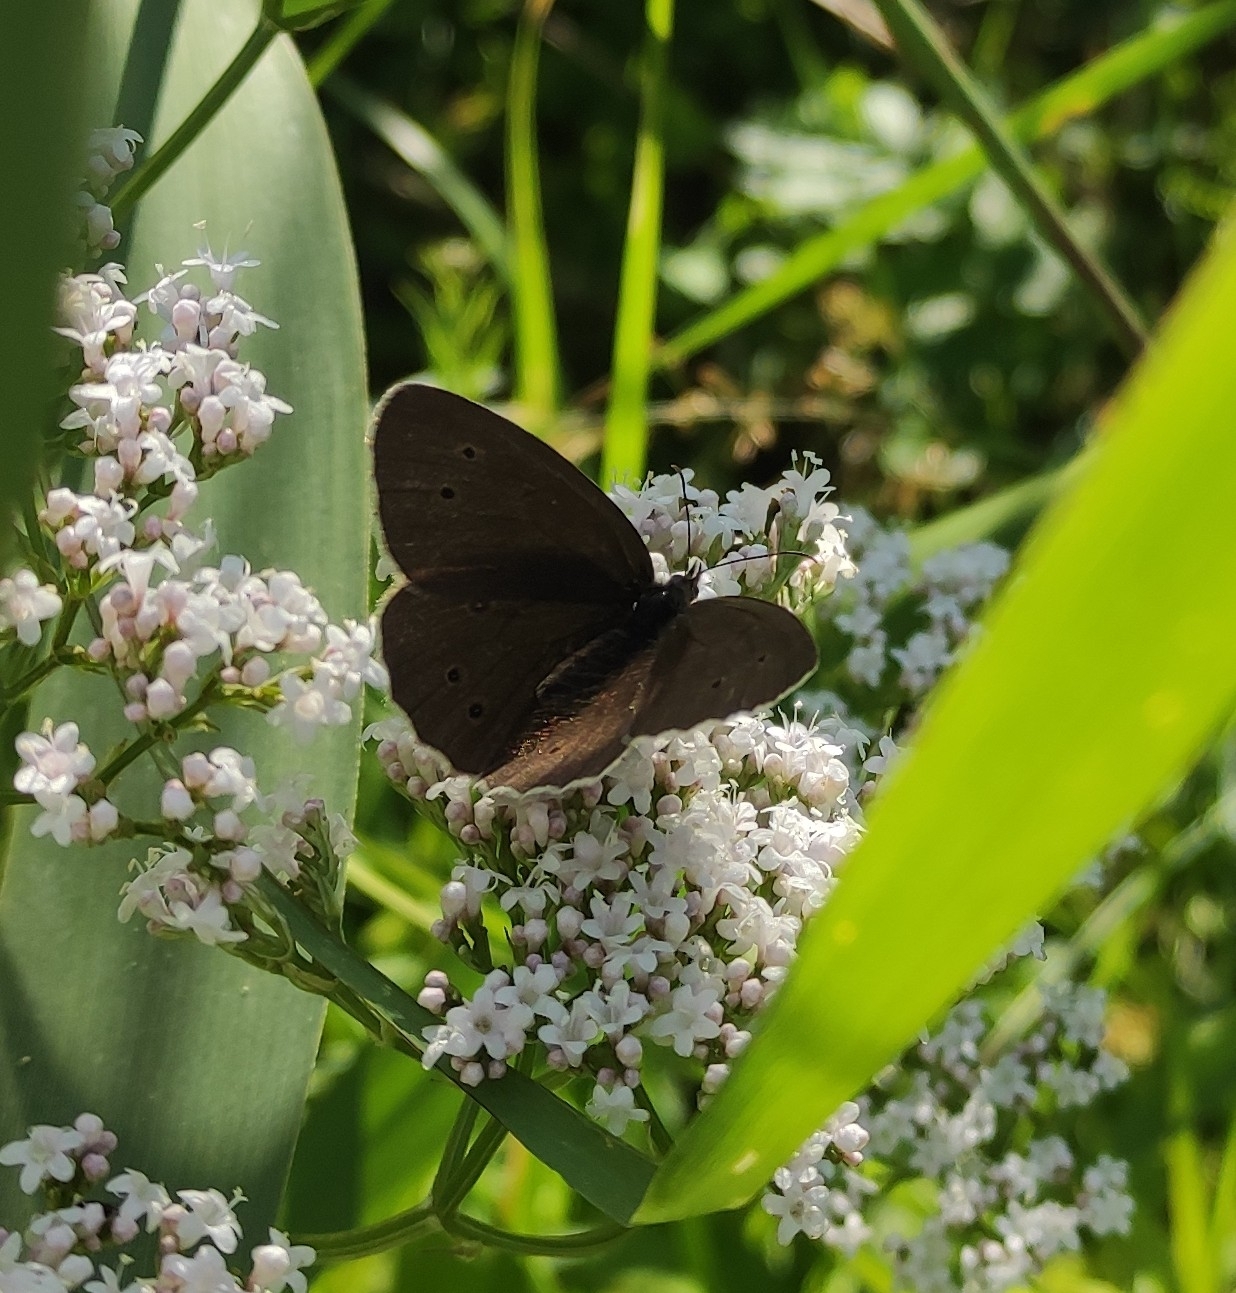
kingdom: Animalia
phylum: Arthropoda
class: Insecta
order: Lepidoptera
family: Nymphalidae
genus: Aphantopus
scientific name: Aphantopus hyperantus
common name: Ringlet
